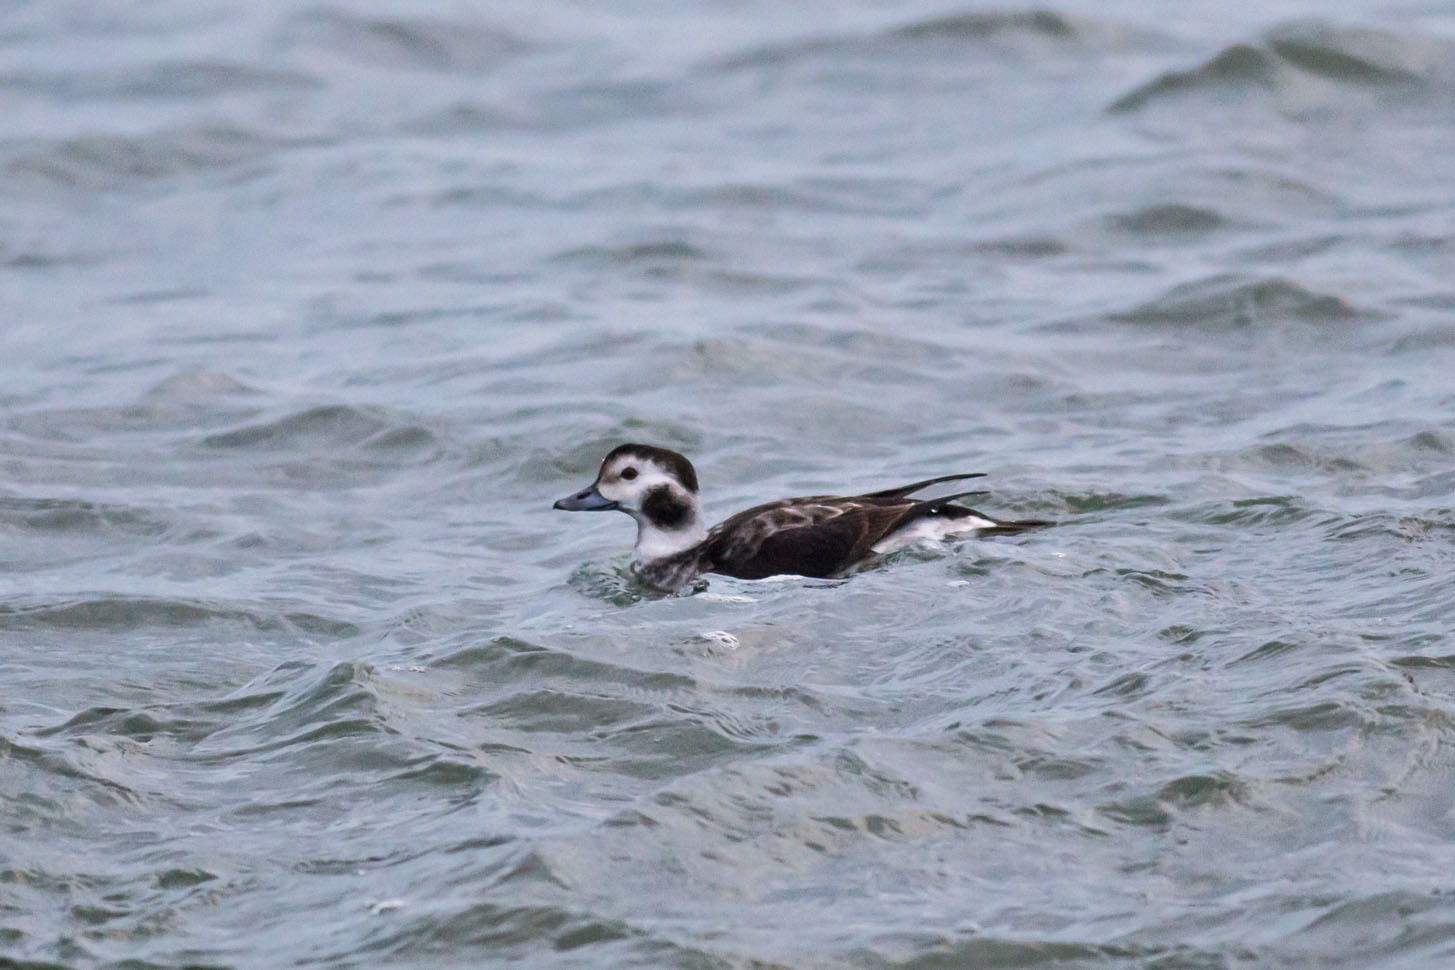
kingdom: Animalia
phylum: Chordata
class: Aves
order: Anseriformes
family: Anatidae
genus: Clangula
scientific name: Clangula hyemalis
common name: Long-tailed duck
